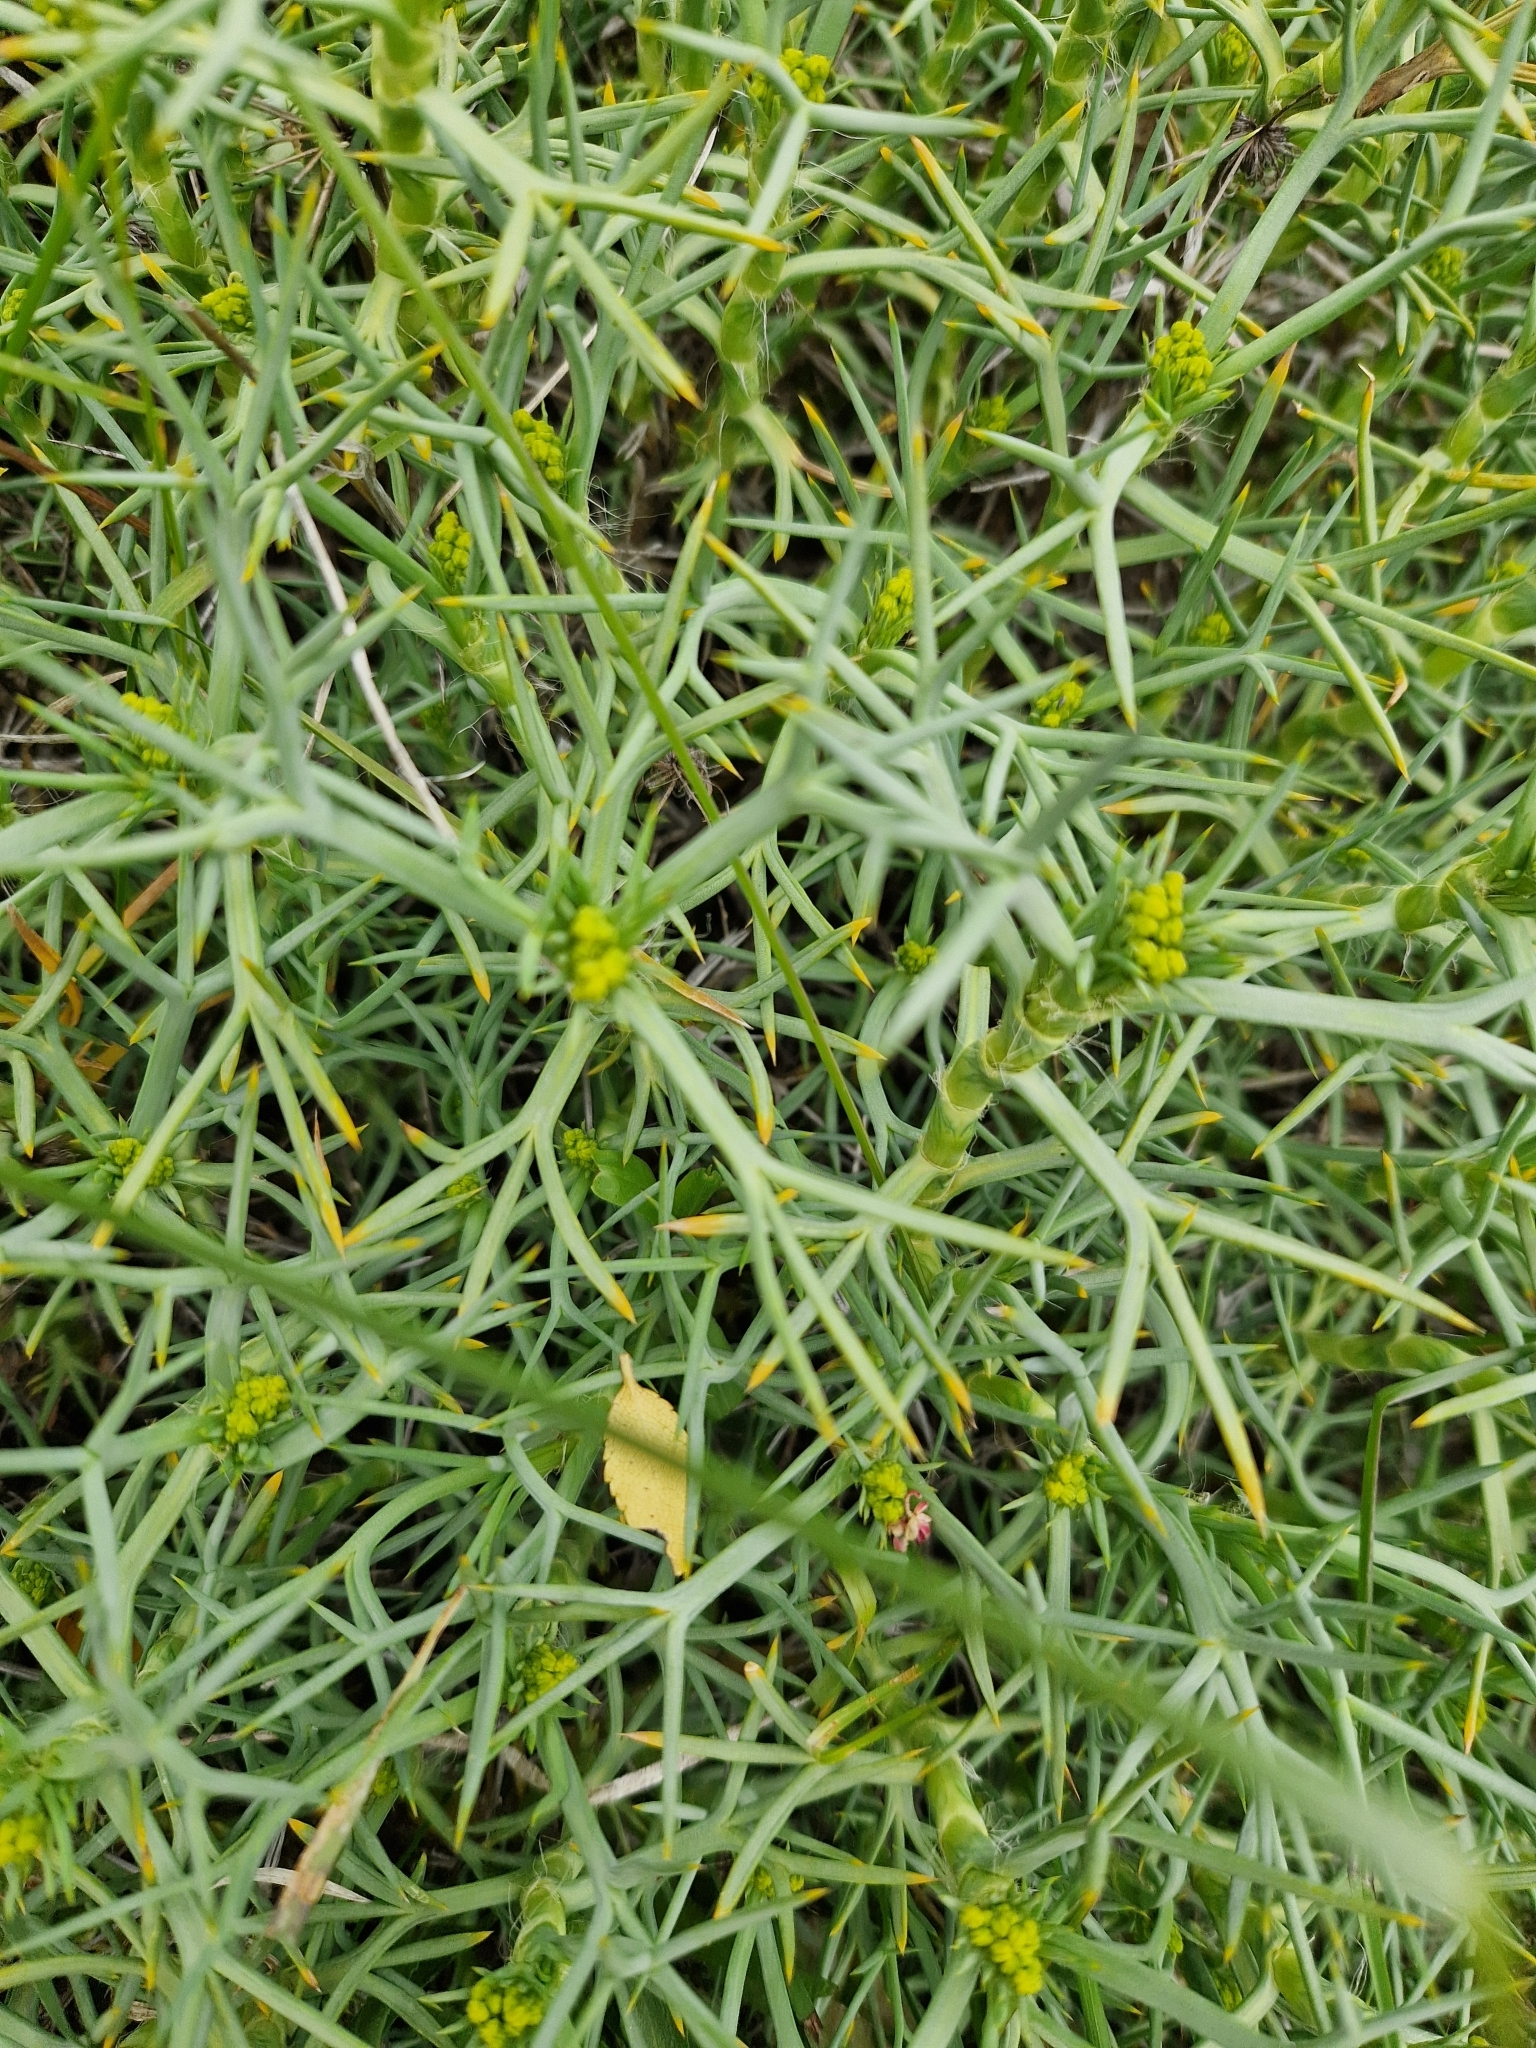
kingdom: Plantae
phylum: Tracheophyta
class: Magnoliopsida
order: Apiales
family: Apiaceae
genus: Azorella
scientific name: Azorella prolifera
